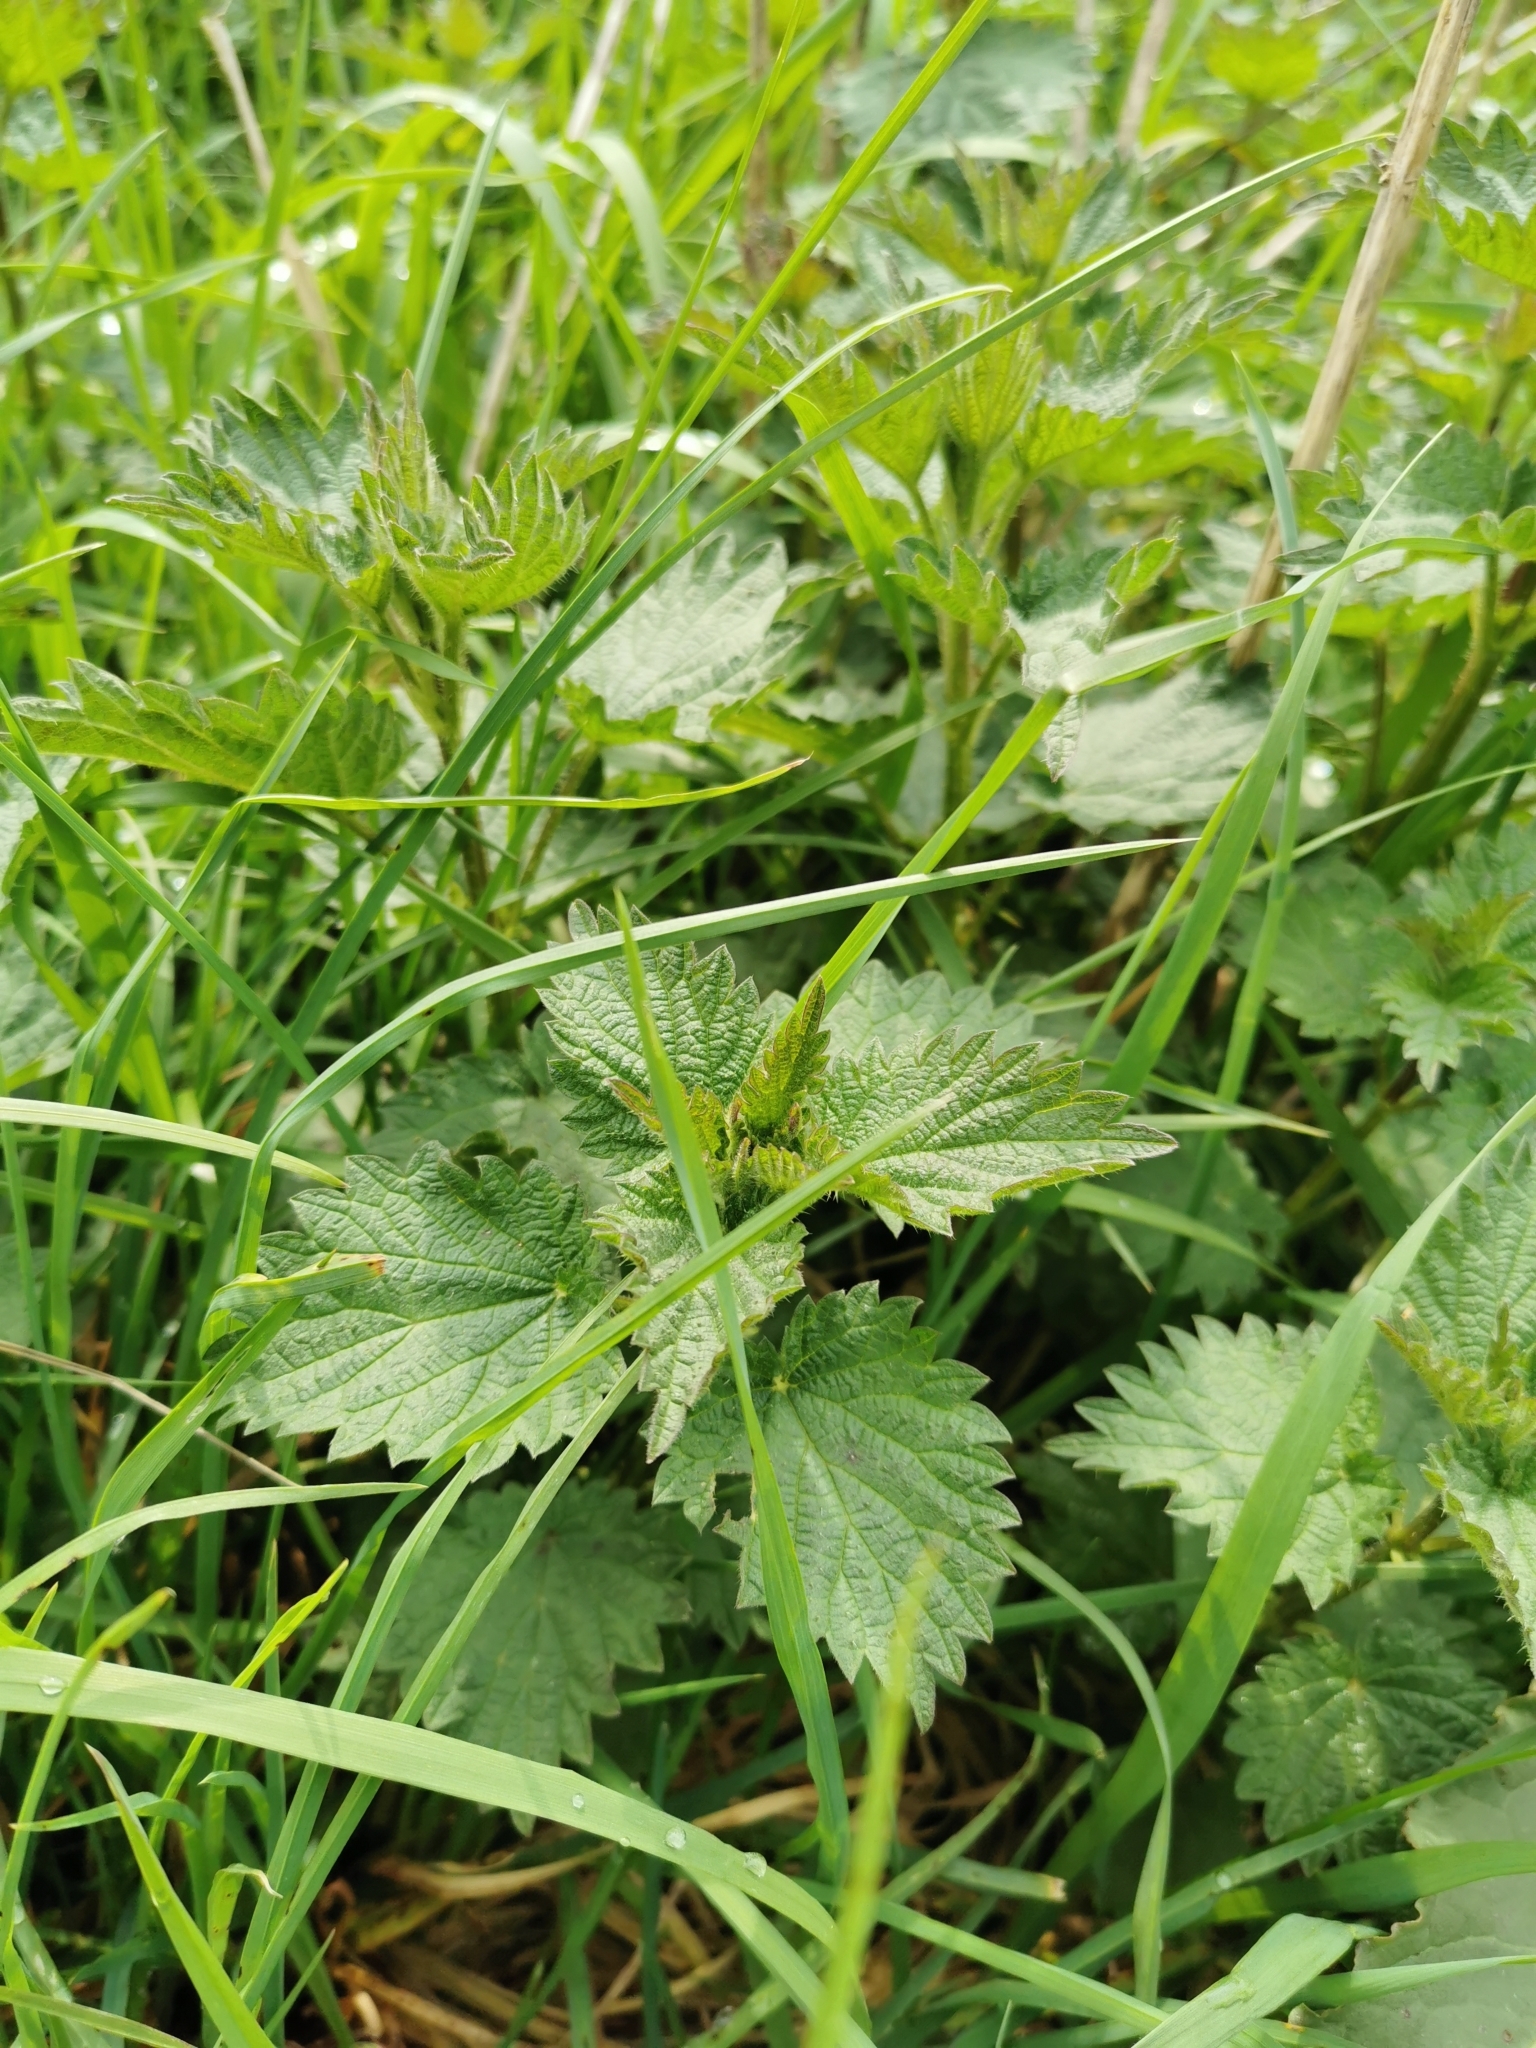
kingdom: Plantae
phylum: Tracheophyta
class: Magnoliopsida
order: Rosales
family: Urticaceae
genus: Urtica
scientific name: Urtica dioica
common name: Common nettle
